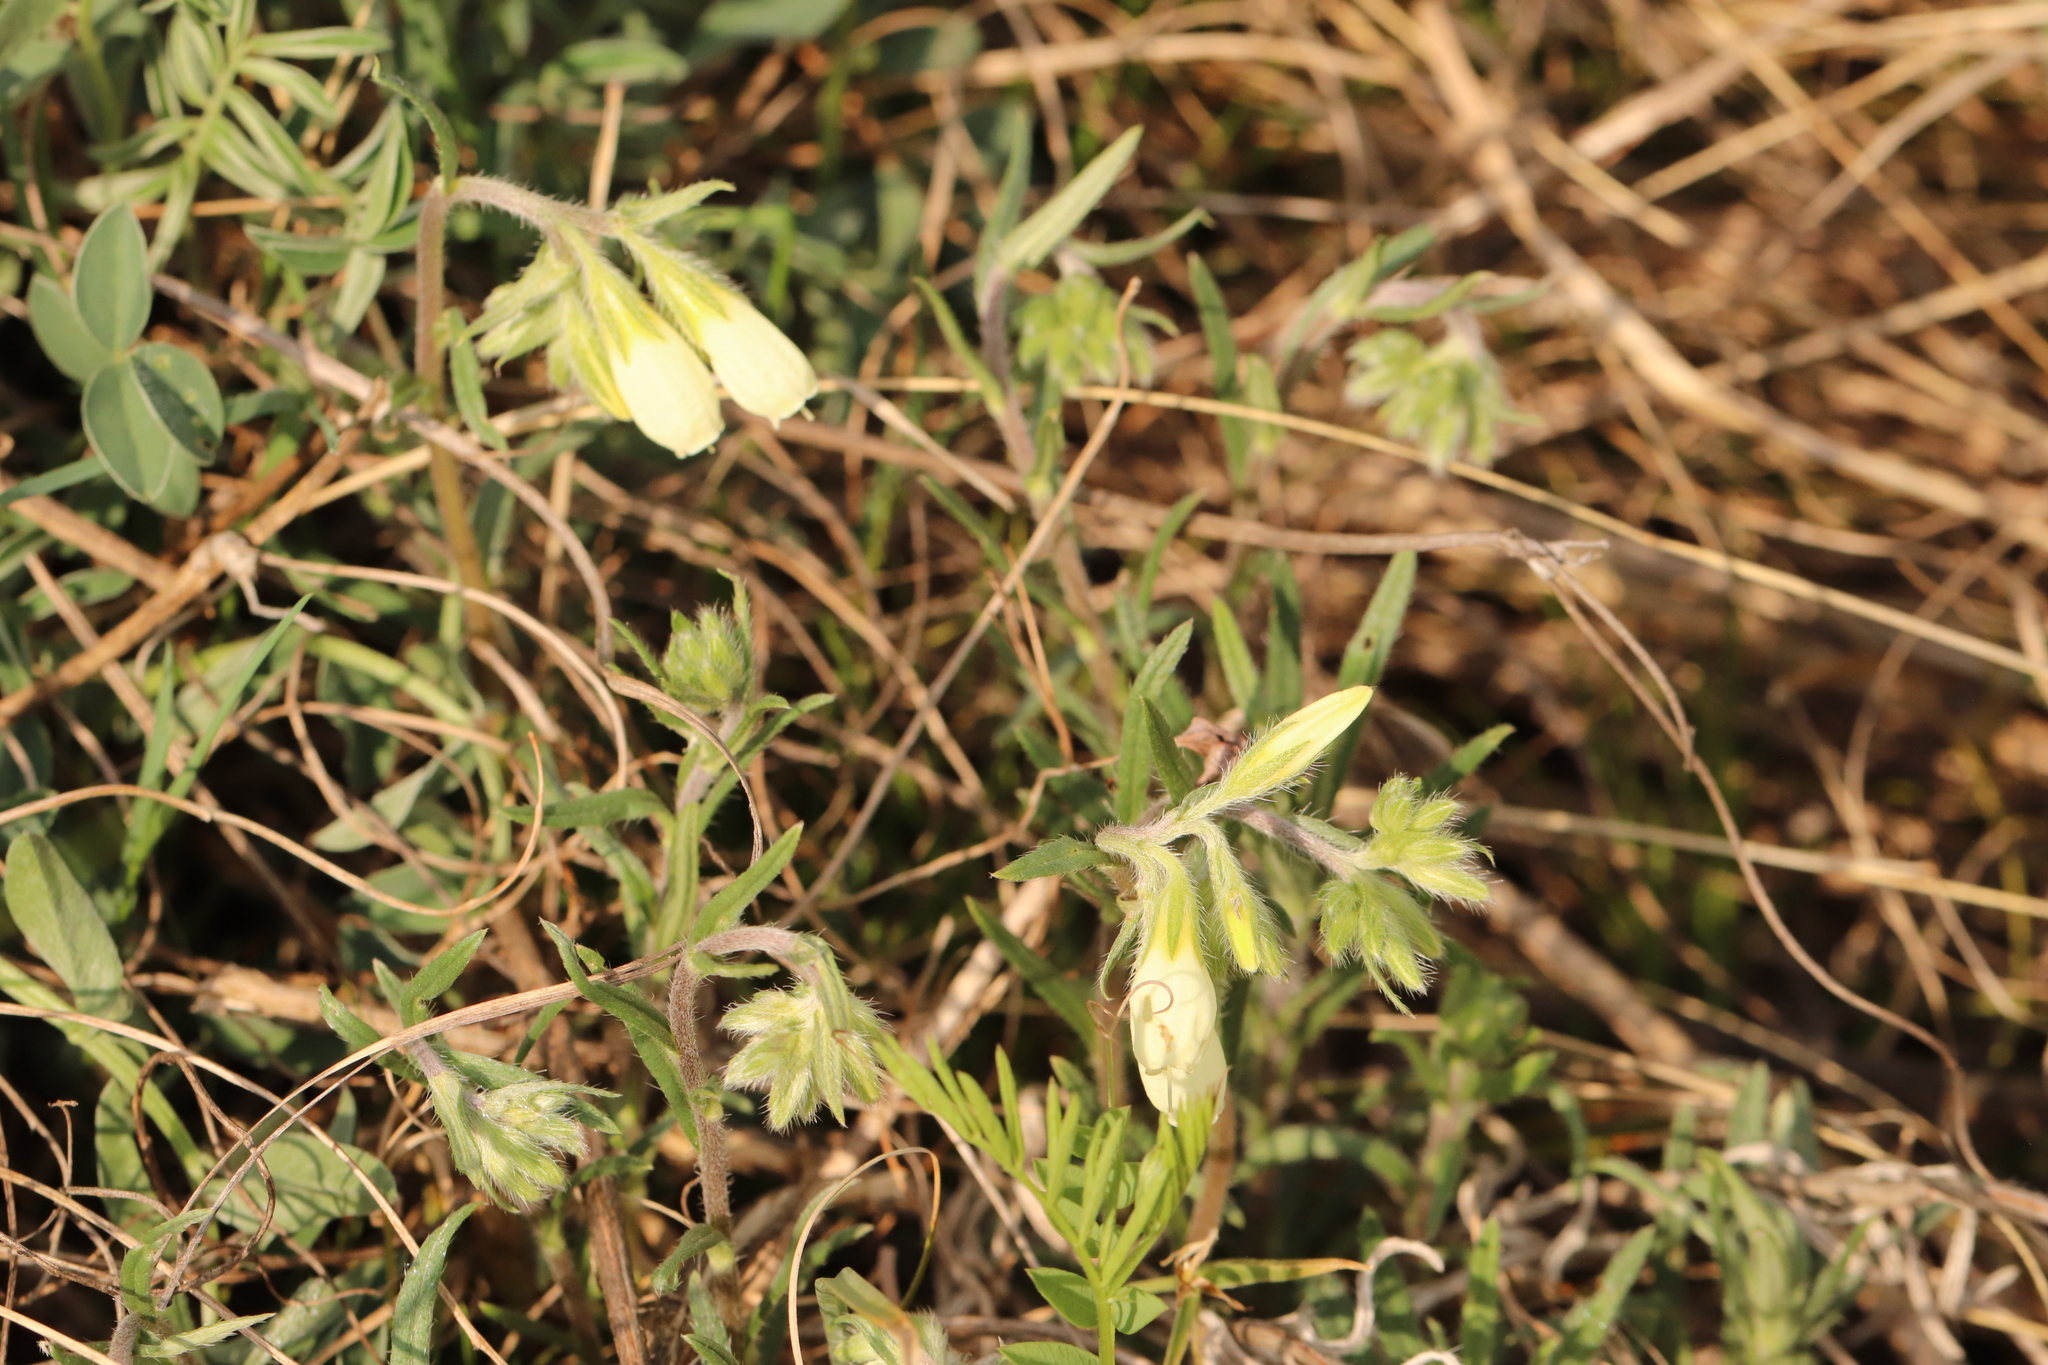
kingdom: Plantae
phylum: Tracheophyta
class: Magnoliopsida
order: Boraginales
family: Boraginaceae
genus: Onosma
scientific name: Onosma simplicissima
